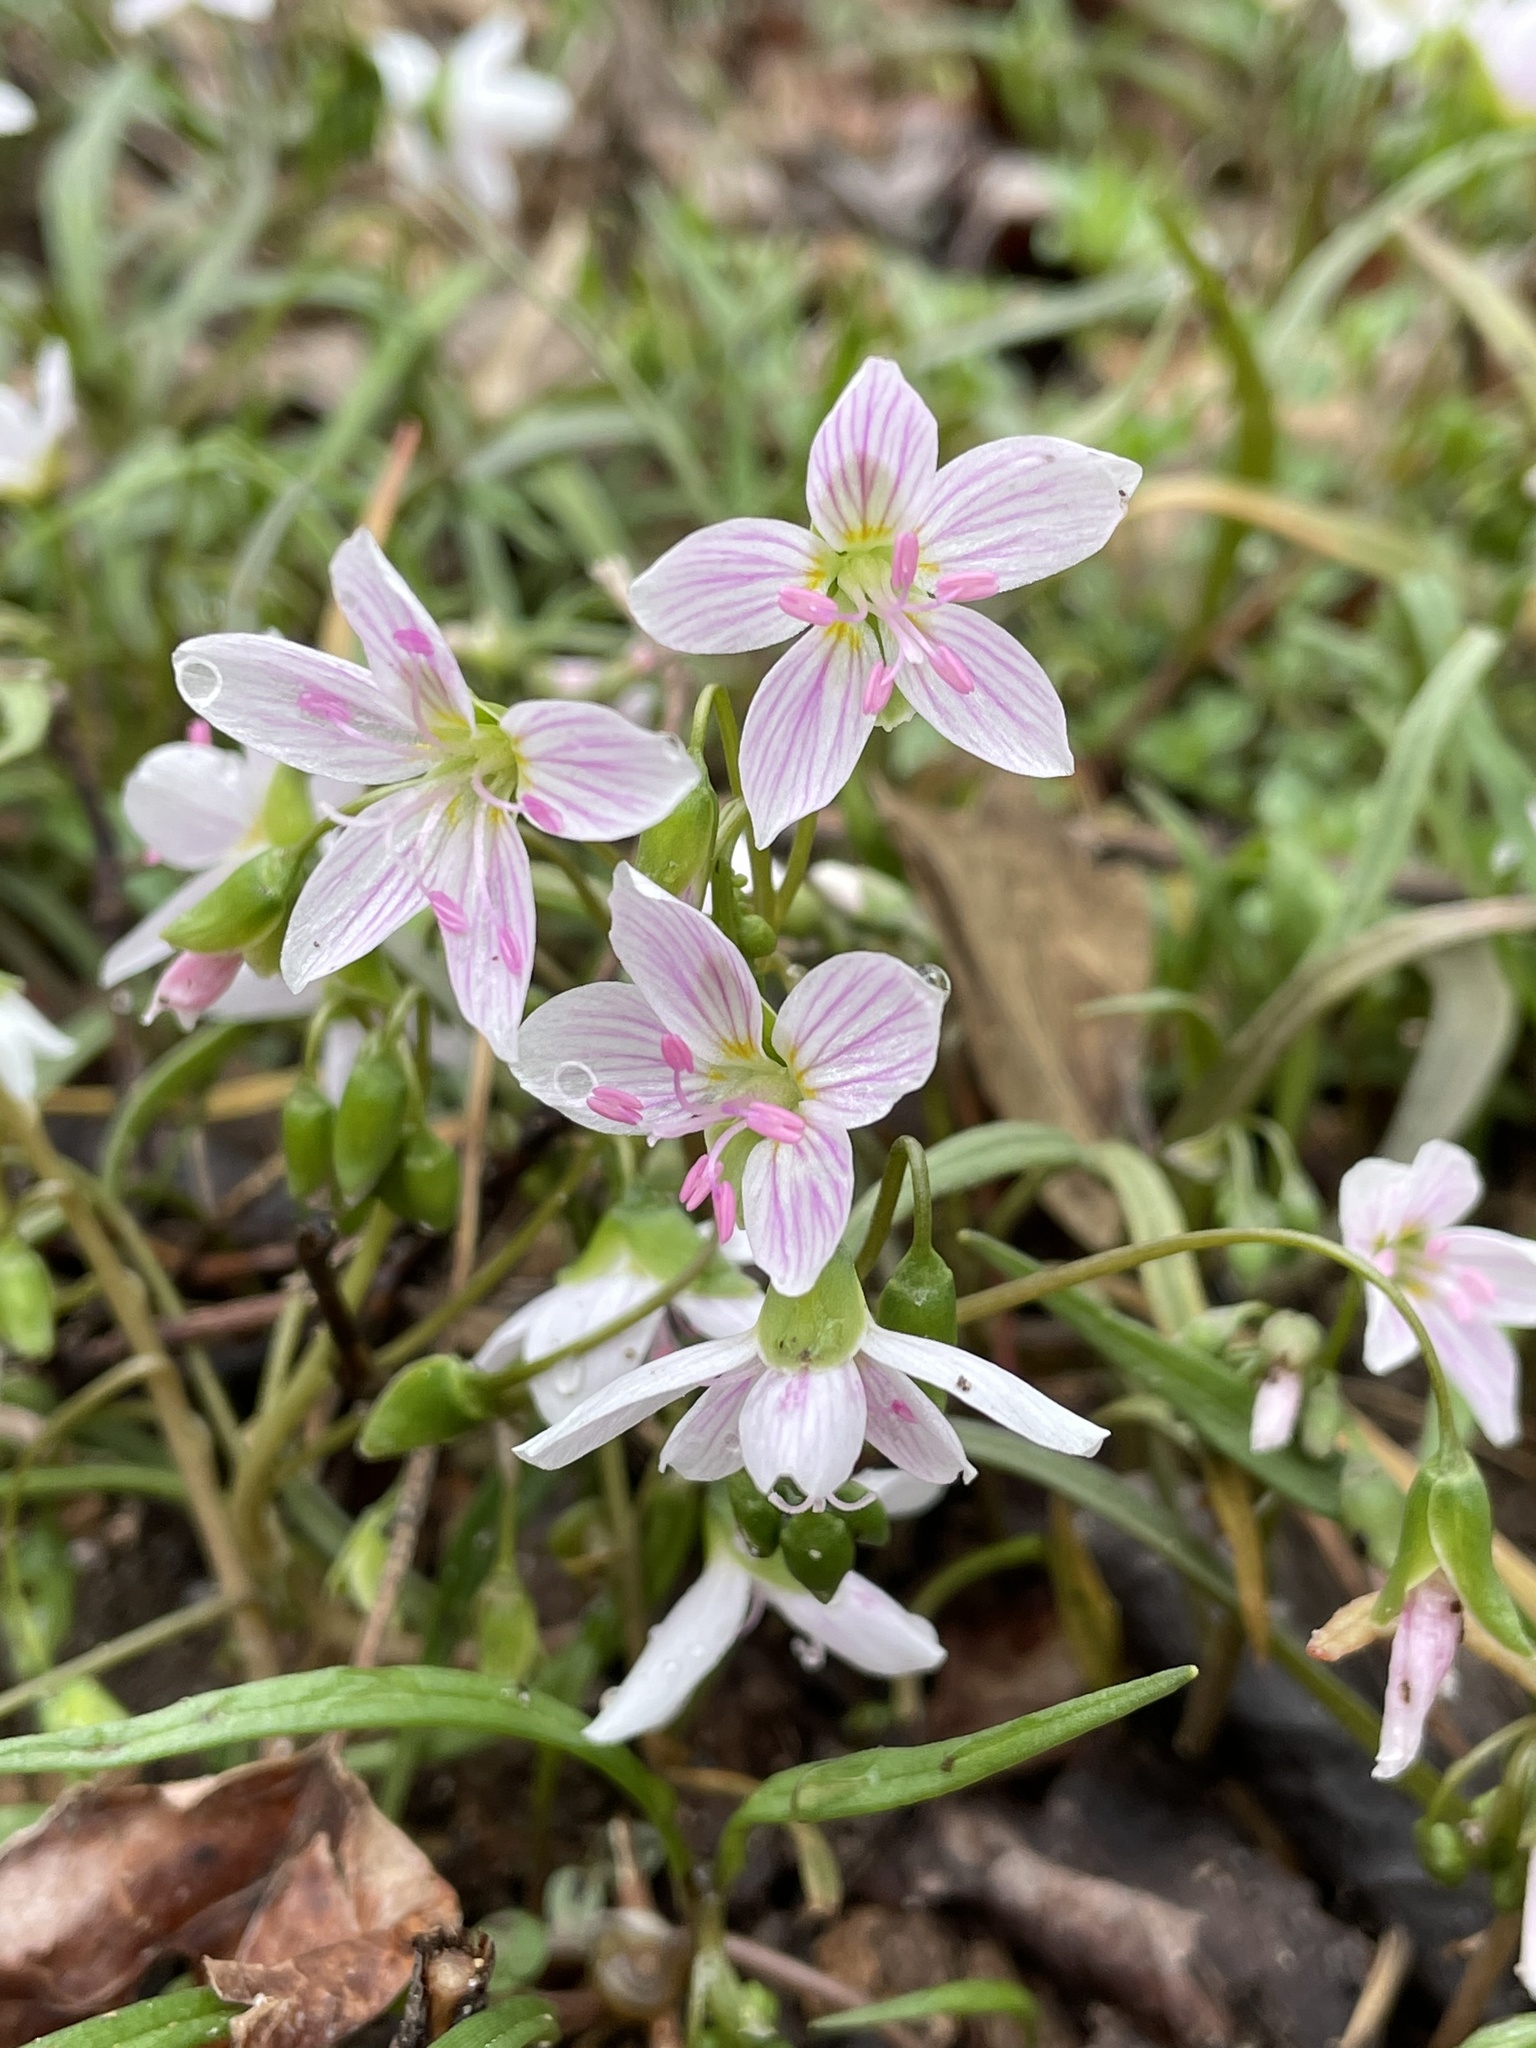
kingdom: Plantae
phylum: Tracheophyta
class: Magnoliopsida
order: Caryophyllales
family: Montiaceae
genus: Claytonia
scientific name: Claytonia virginica
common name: Virginia springbeauty
